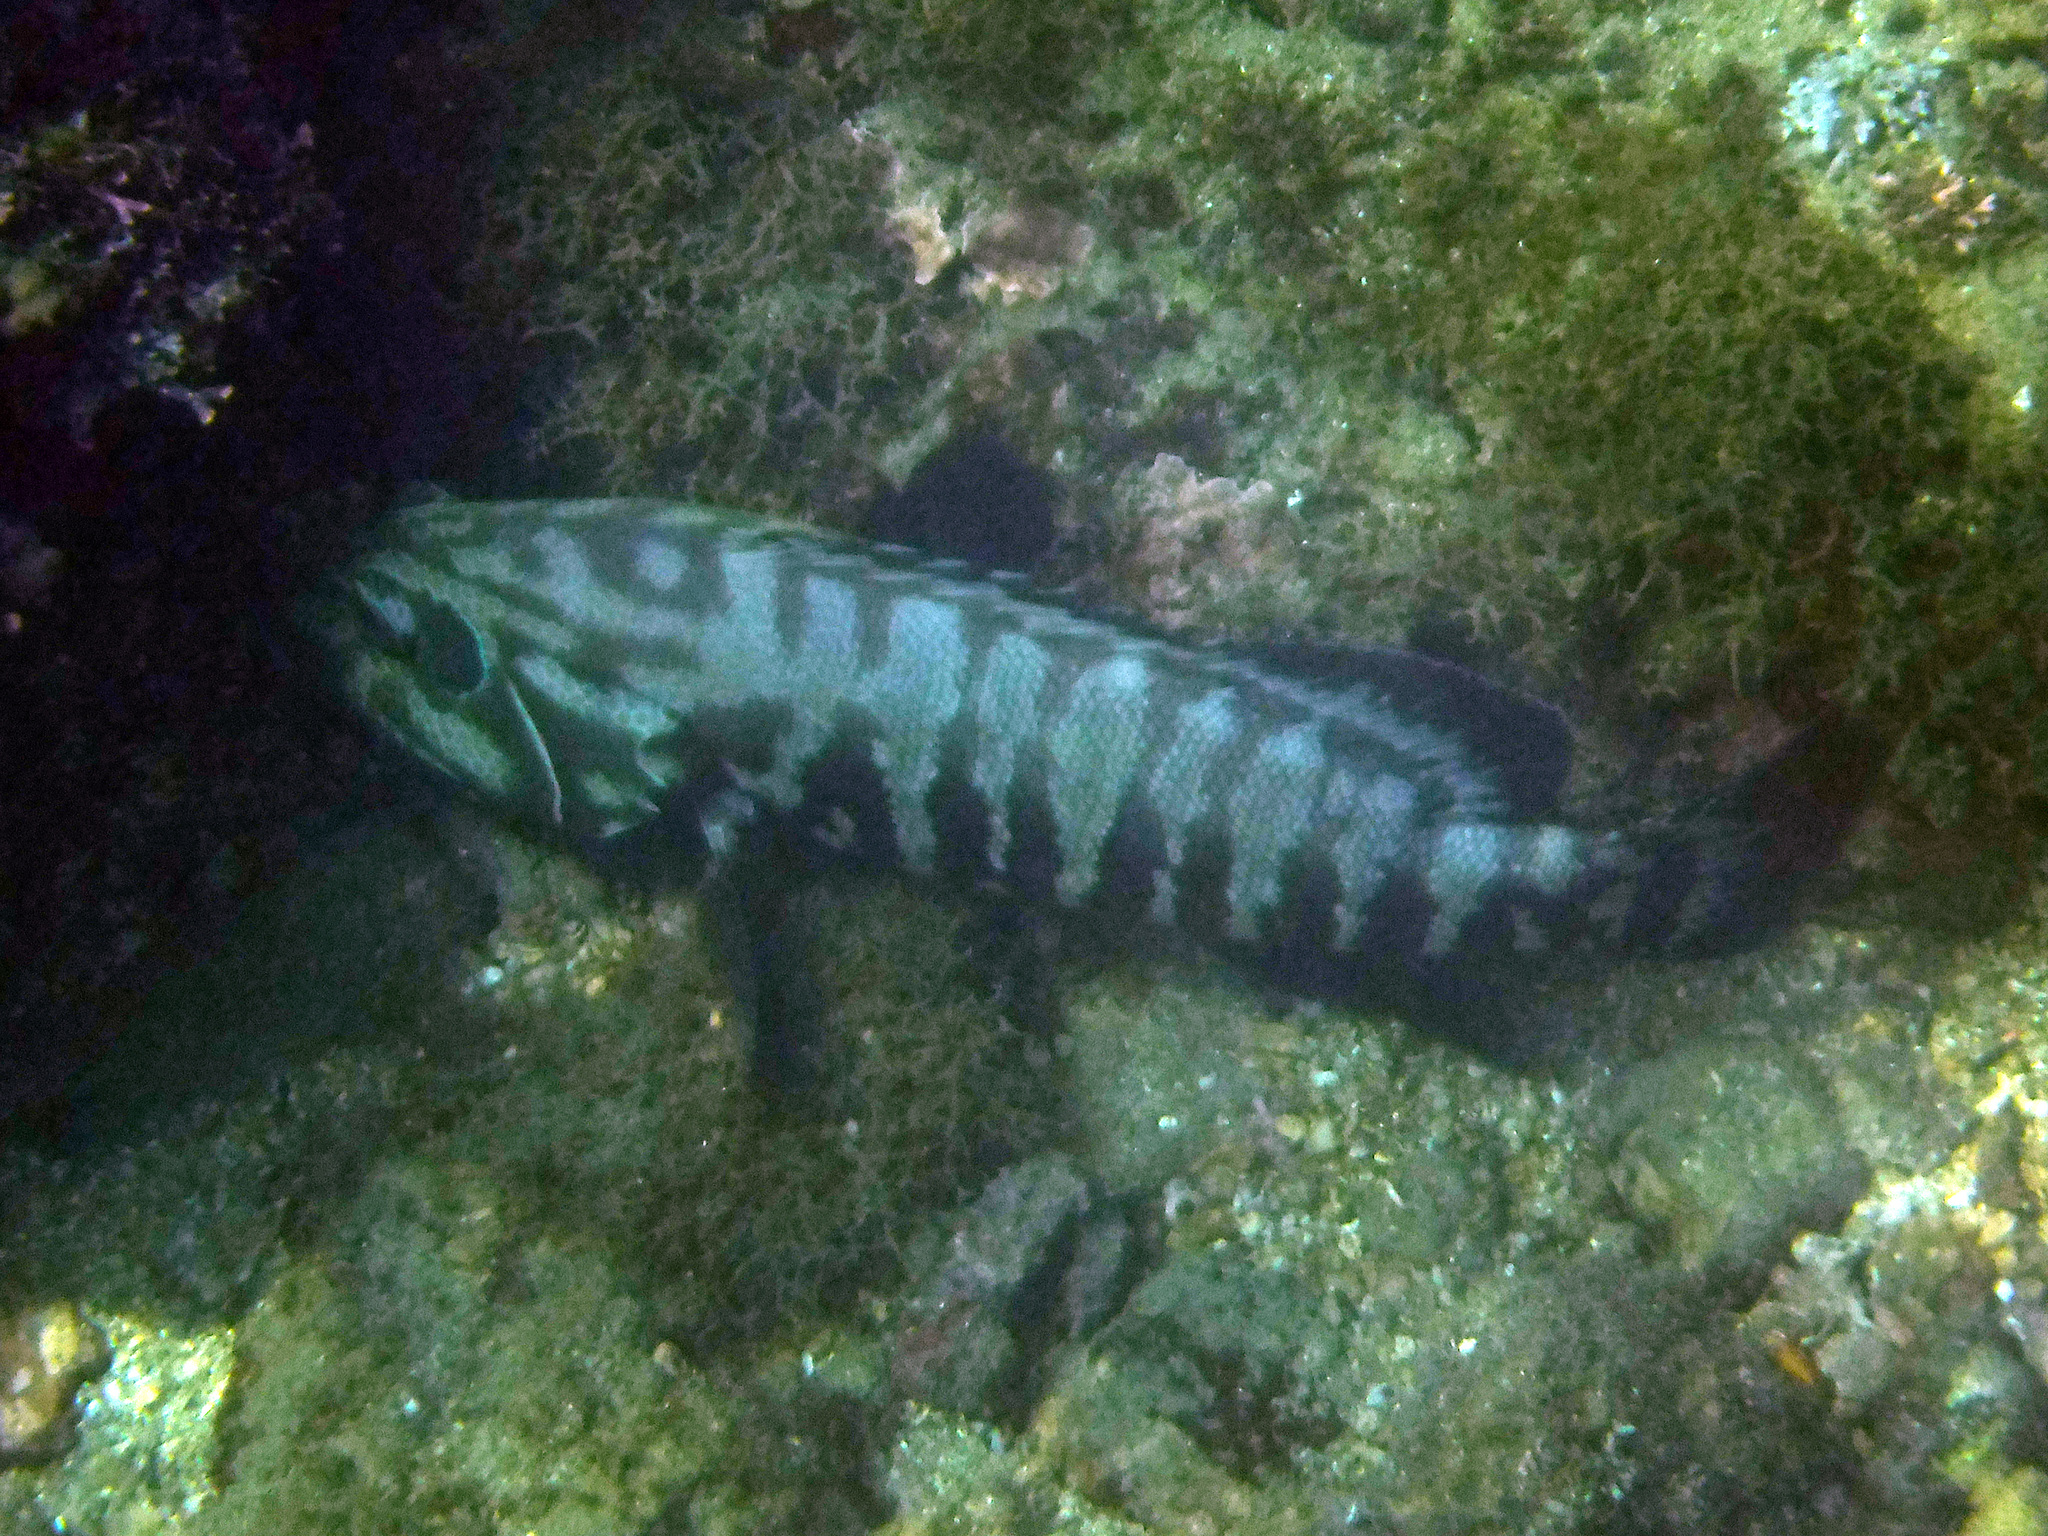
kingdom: Animalia
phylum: Chordata
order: Perciformes
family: Serranidae
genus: Cephalopholis
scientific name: Cephalopholis panamensis
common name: Pacific graysby
